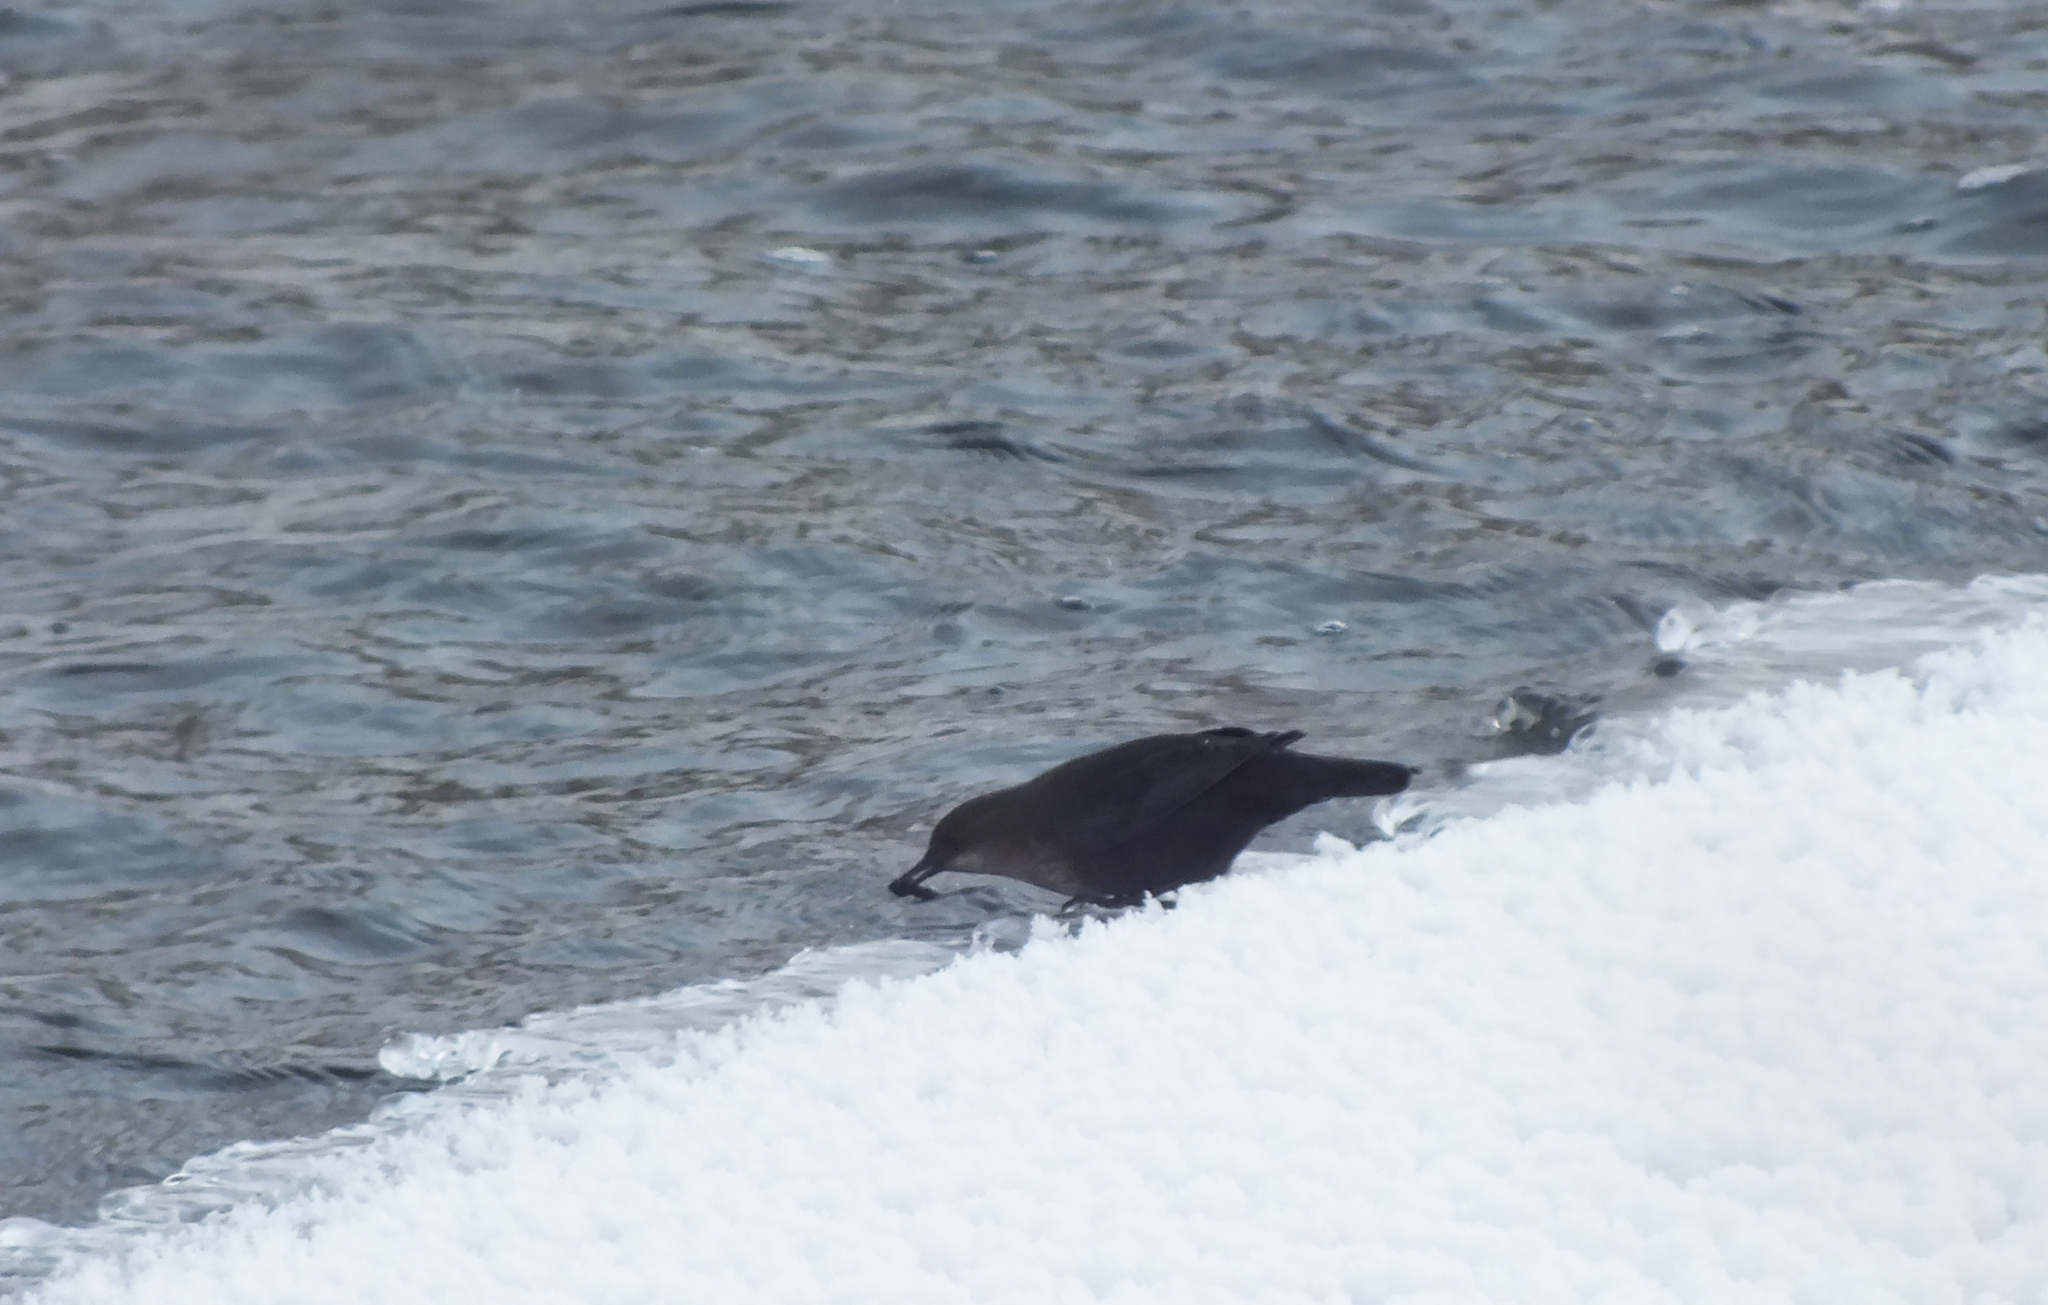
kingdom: Animalia
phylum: Chordata
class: Aves
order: Passeriformes
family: Cinclidae
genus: Cinclus
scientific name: Cinclus cinclus
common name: White-throated dipper
